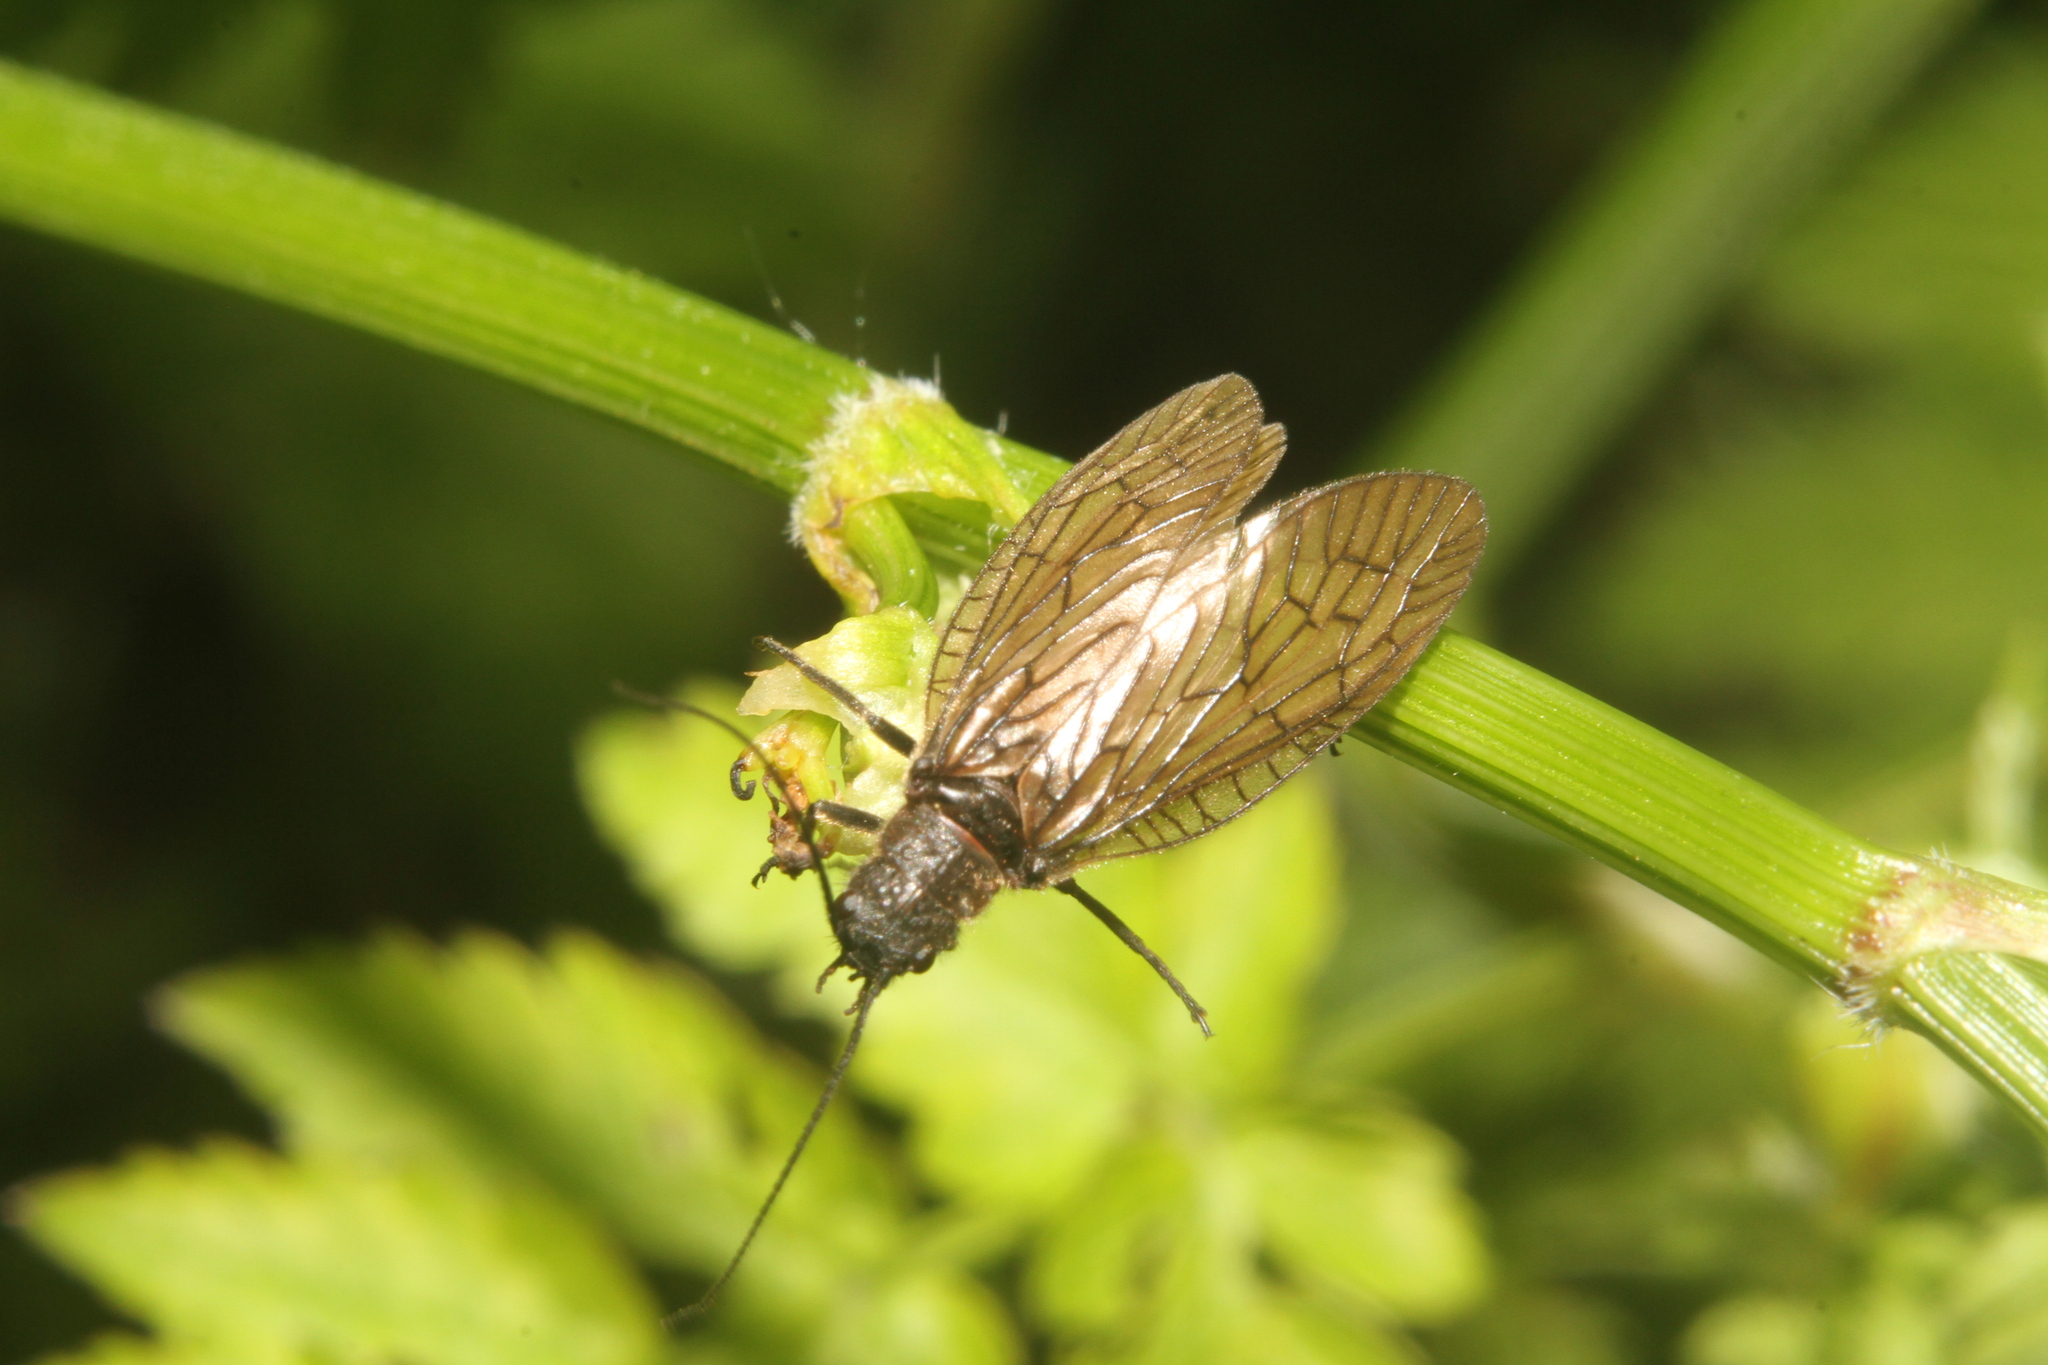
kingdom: Animalia
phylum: Arthropoda
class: Insecta
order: Megaloptera
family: Sialidae
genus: Sialis
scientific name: Sialis
